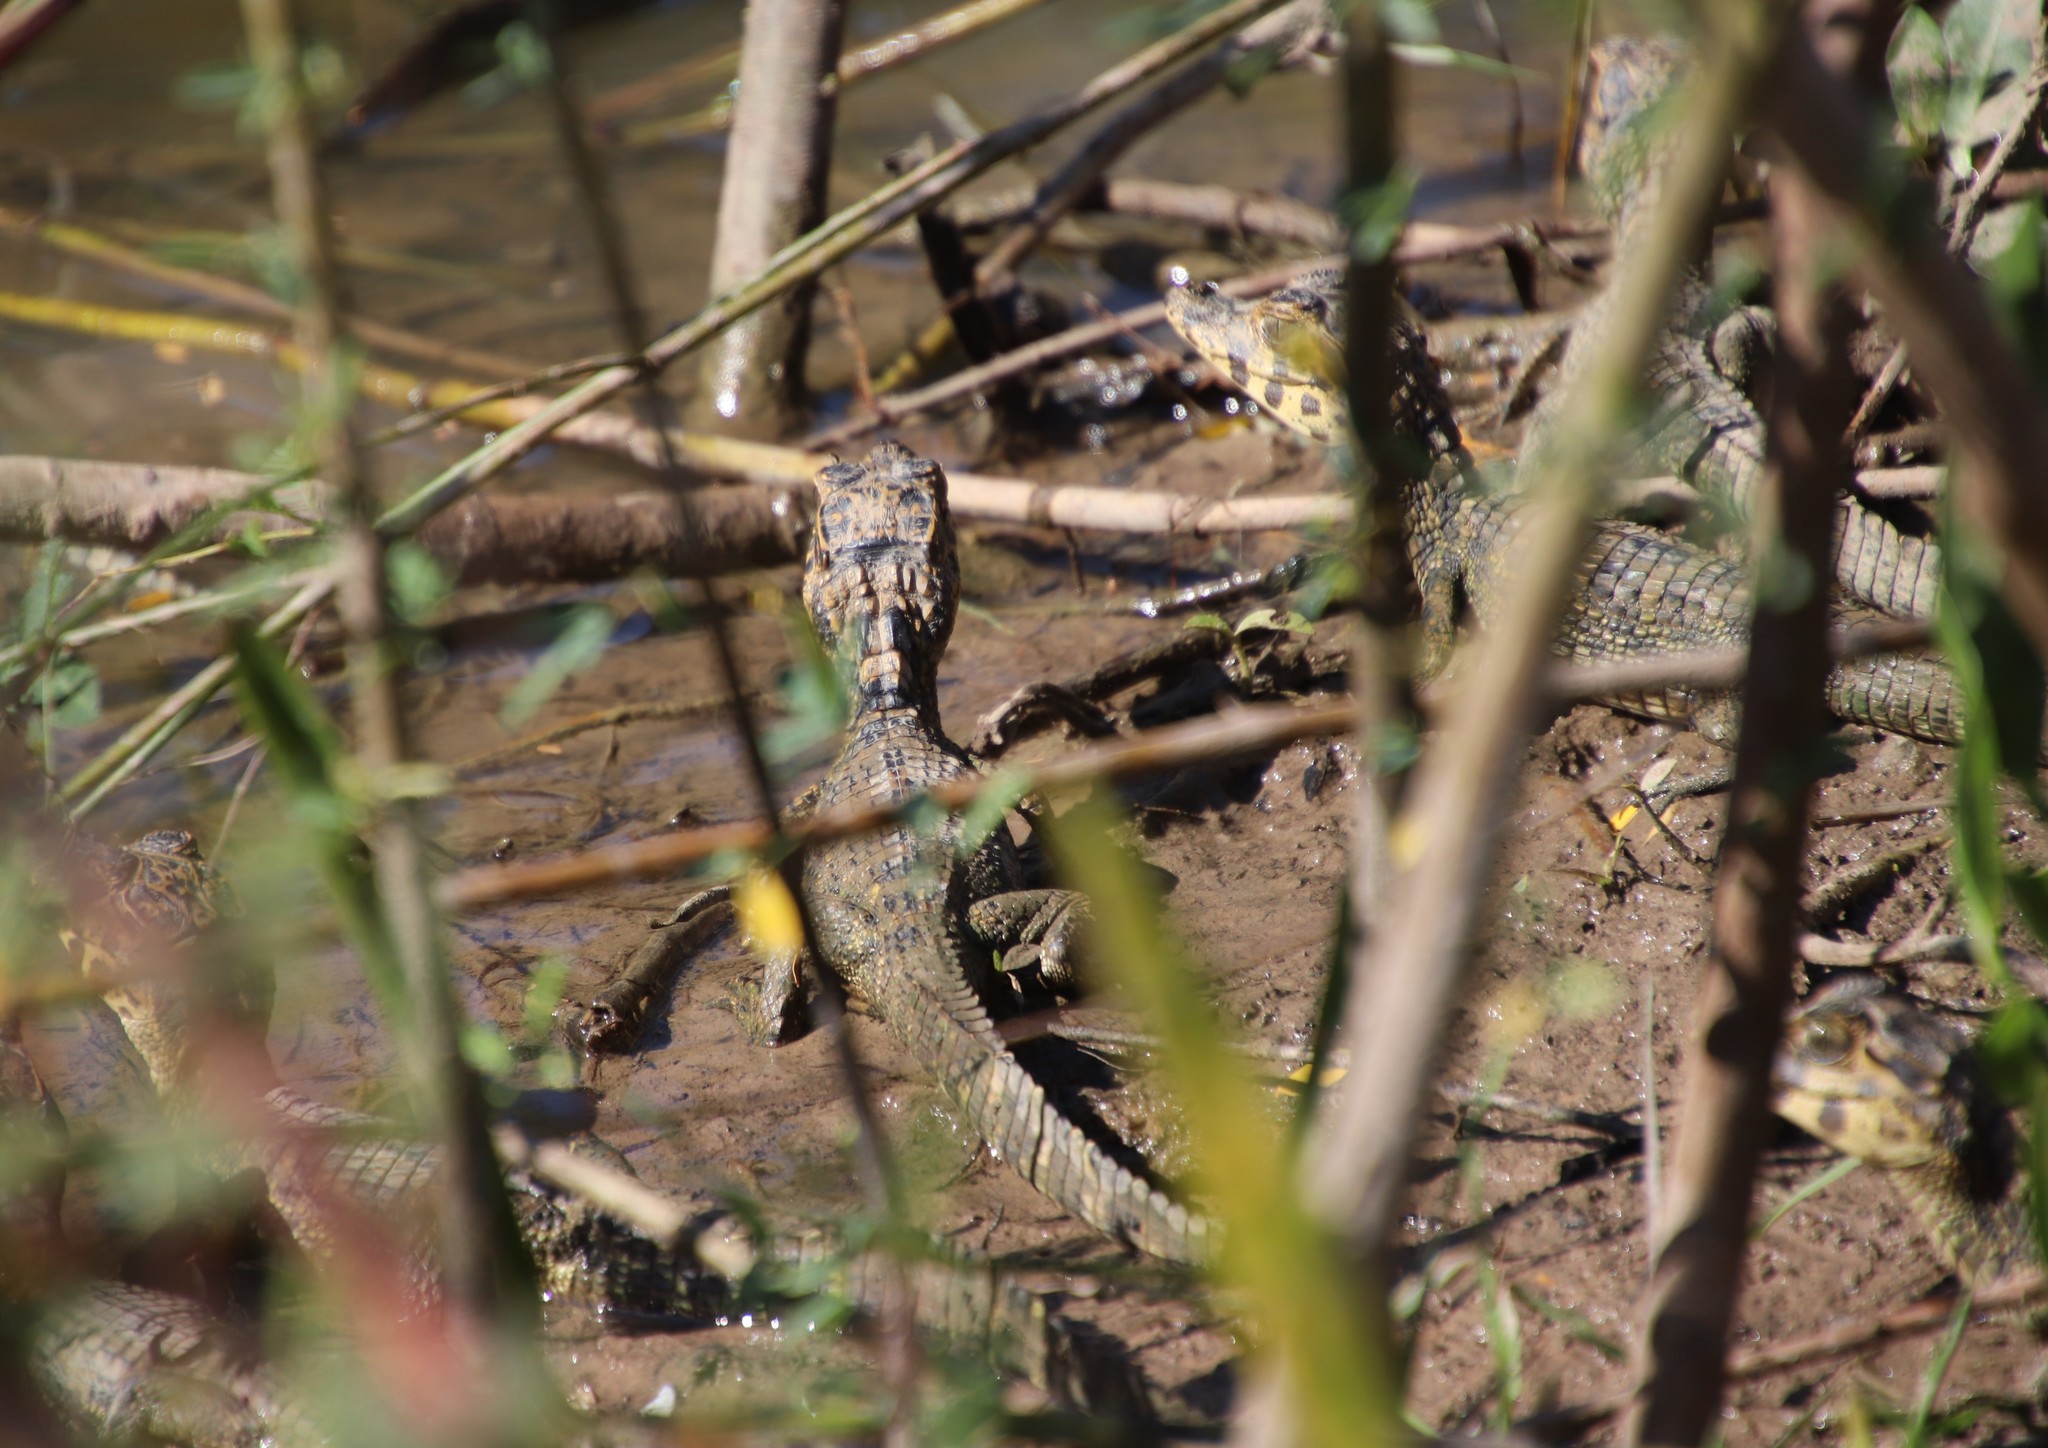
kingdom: Animalia
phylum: Chordata
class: Crocodylia
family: Alligatoridae
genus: Caiman
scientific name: Caiman yacare
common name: Yacare caiman
